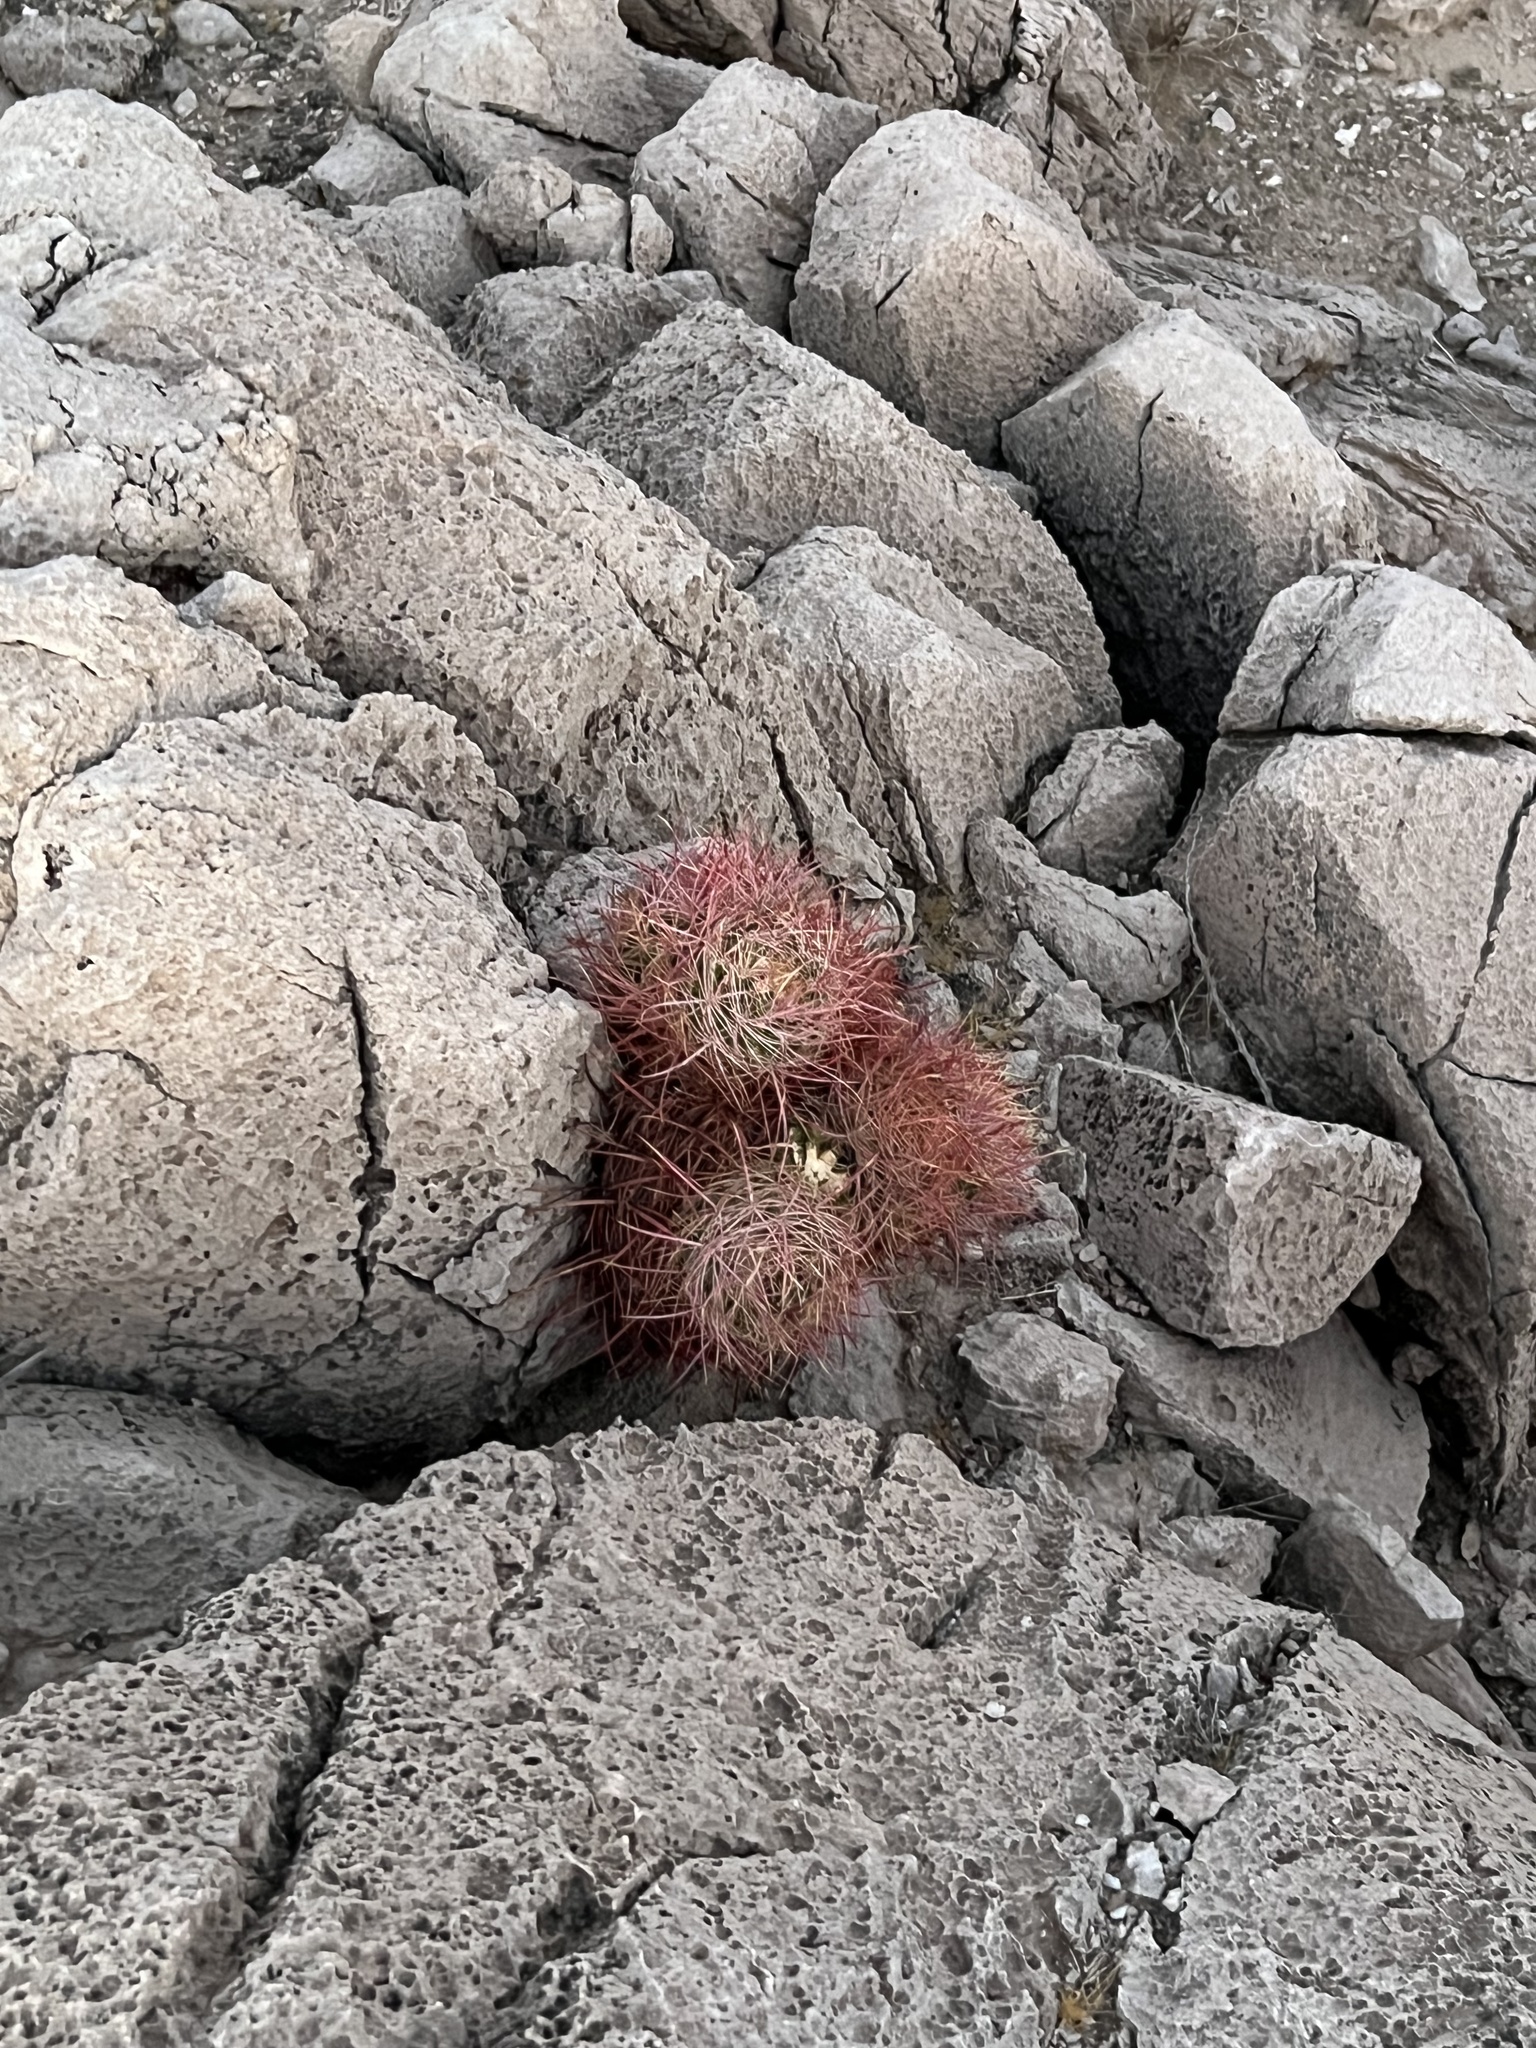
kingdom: Plantae
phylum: Tracheophyta
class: Magnoliopsida
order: Caryophyllales
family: Cactaceae
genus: Ferocactus
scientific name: Ferocactus cylindraceus
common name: California barrel cactus
